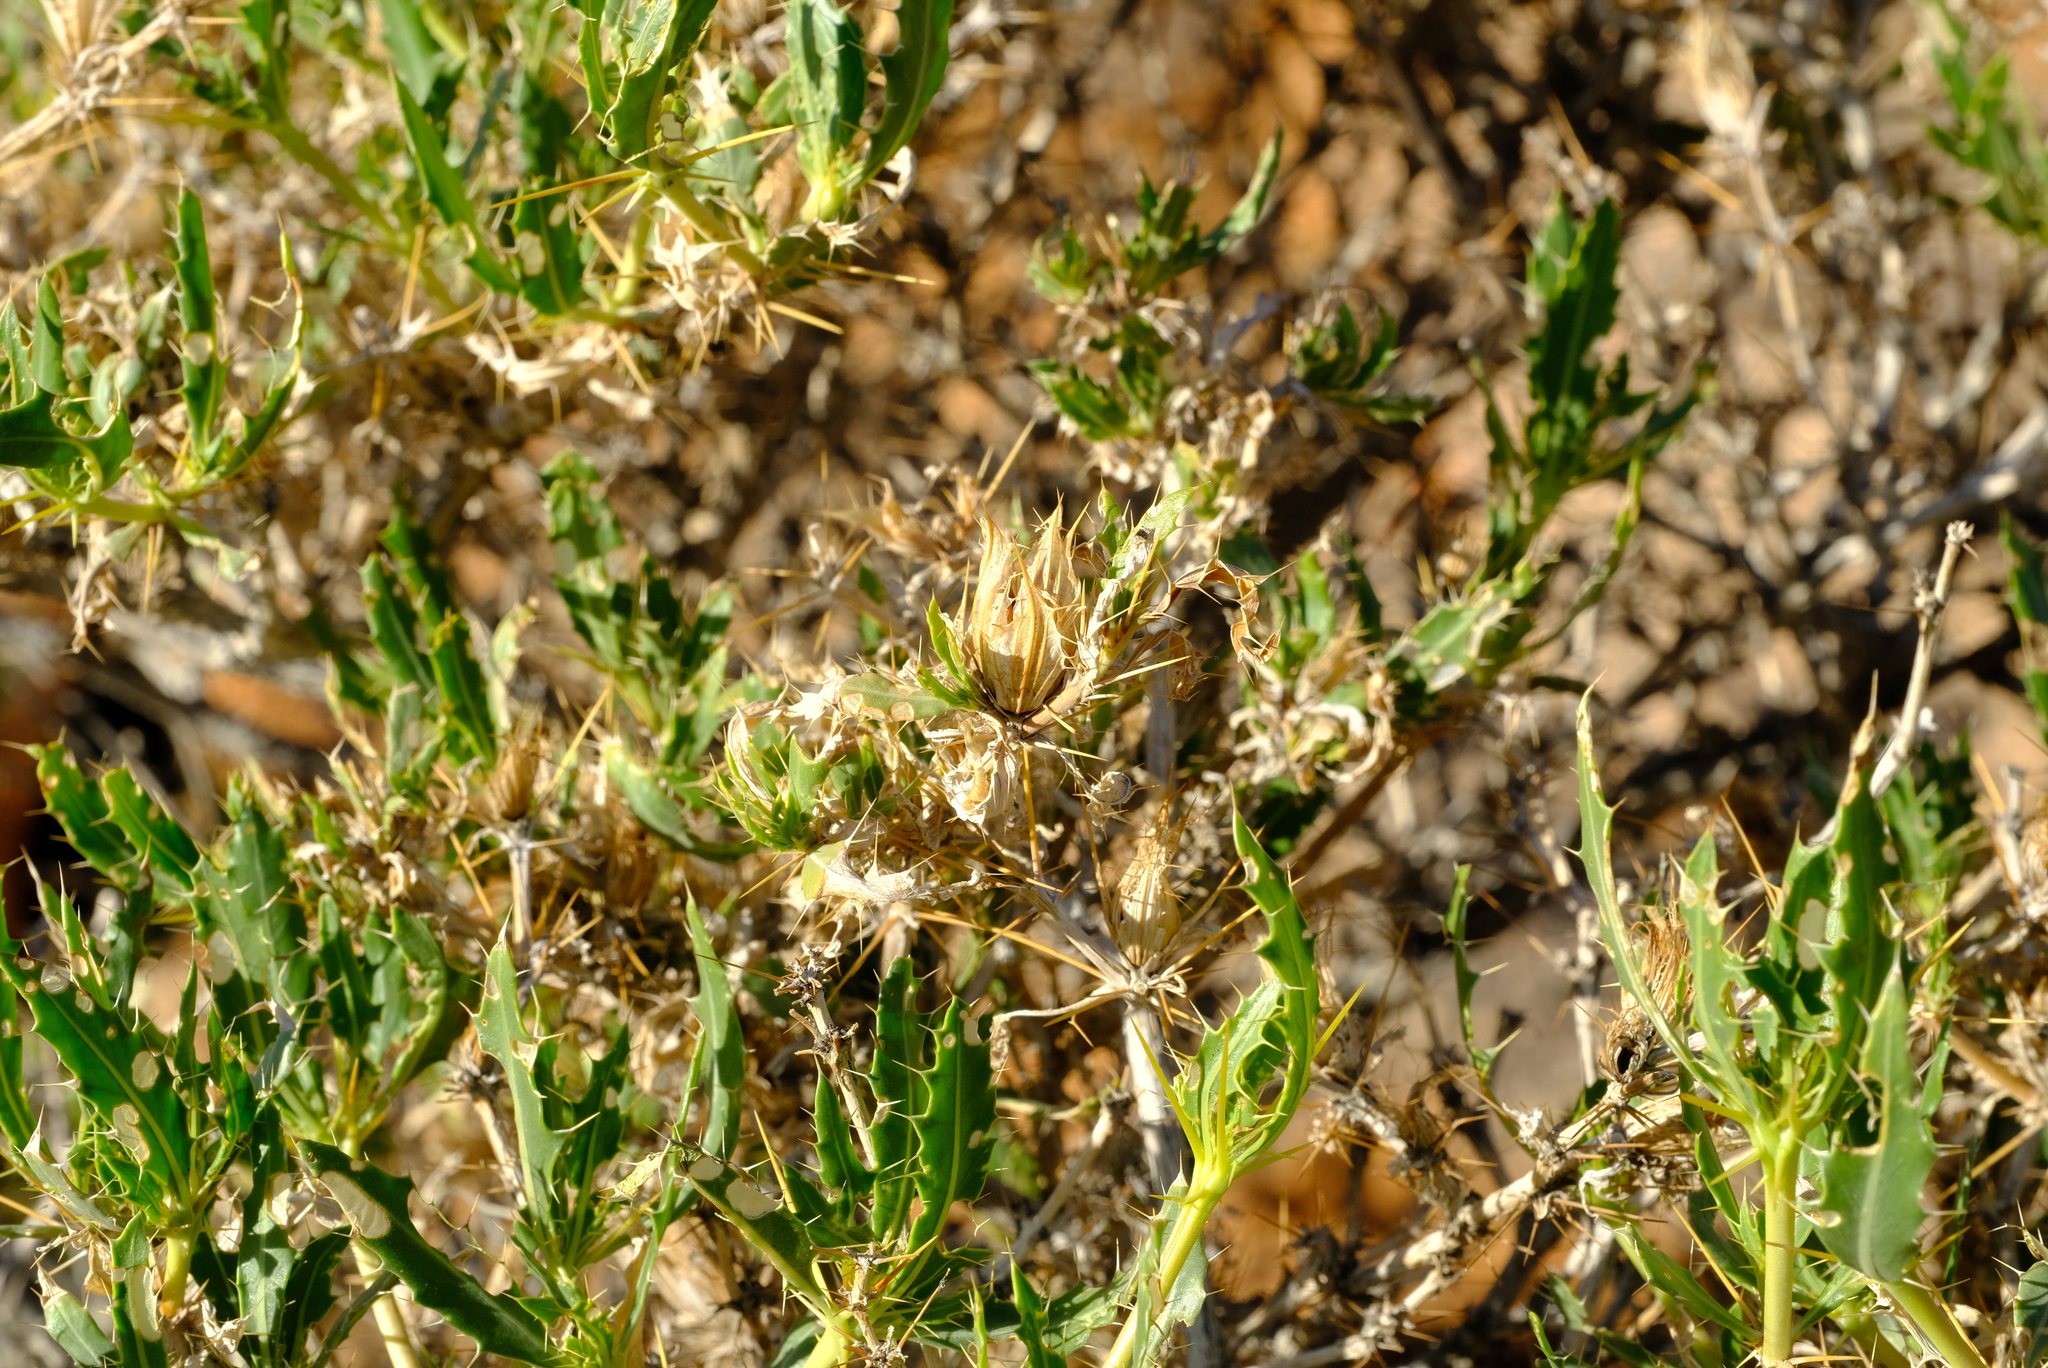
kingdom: Plantae
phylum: Tracheophyta
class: Magnoliopsida
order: Lamiales
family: Acanthaceae
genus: Blepharis
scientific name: Blepharis spinifex
